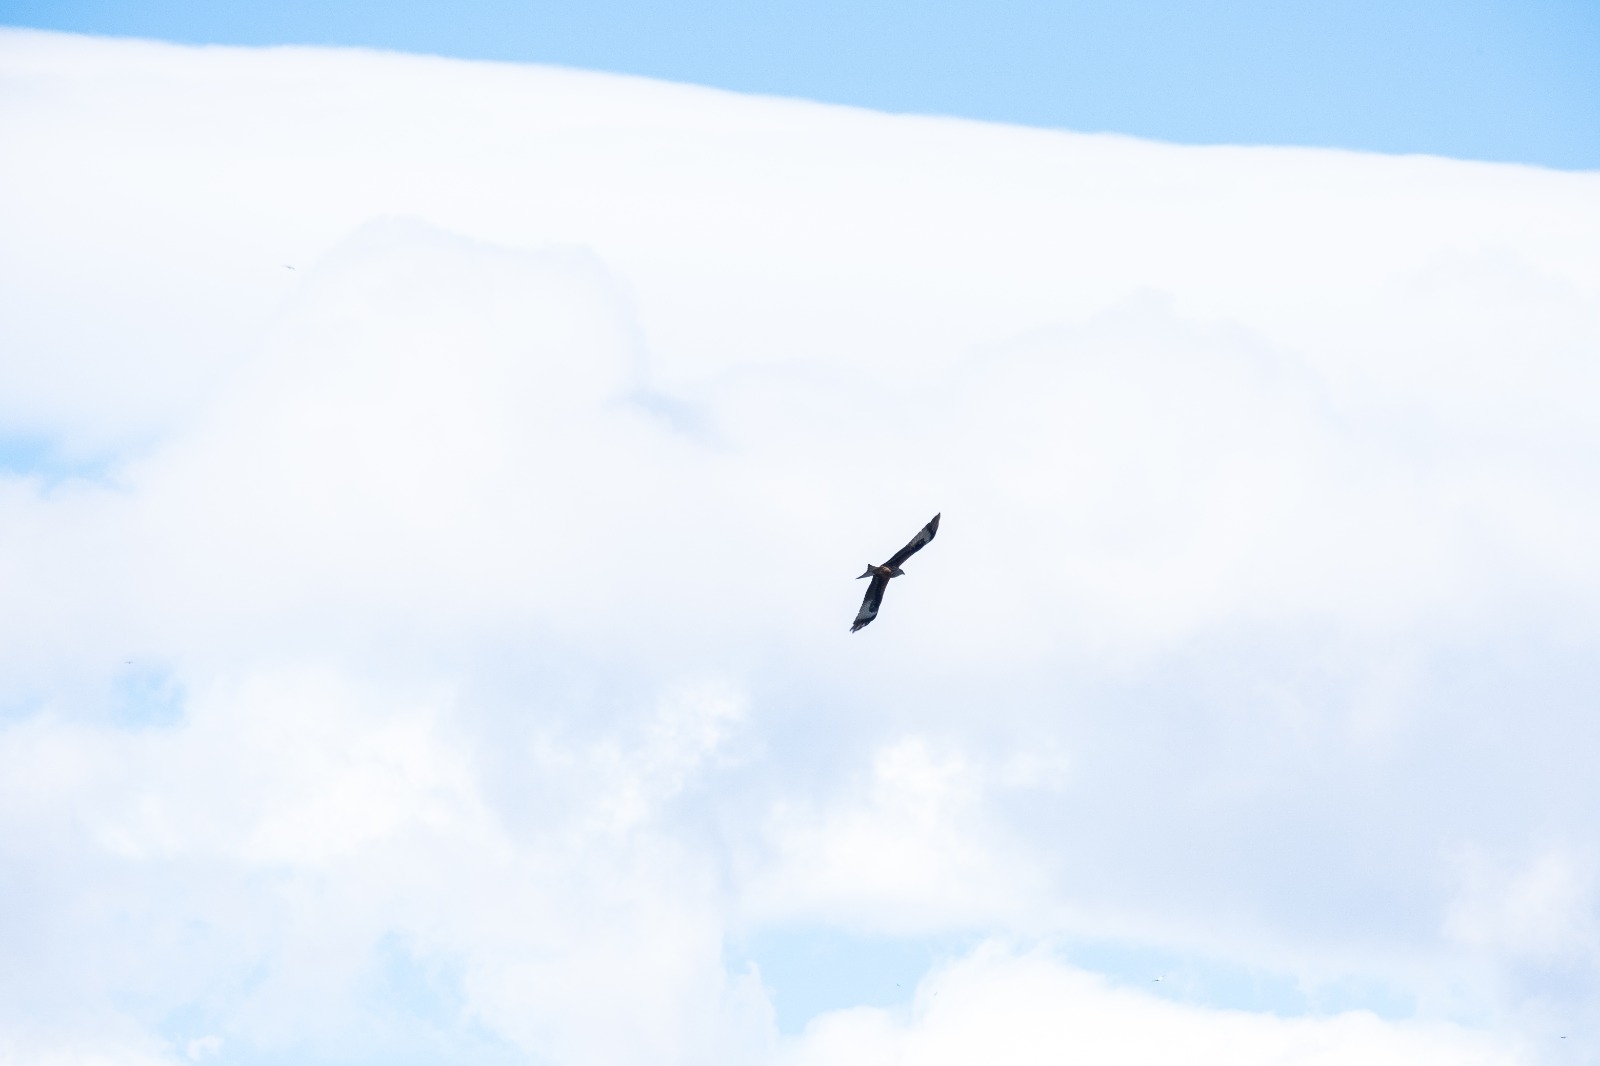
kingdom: Animalia
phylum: Chordata
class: Aves
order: Accipitriformes
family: Accipitridae
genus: Milvus
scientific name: Milvus milvus
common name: Red kite
